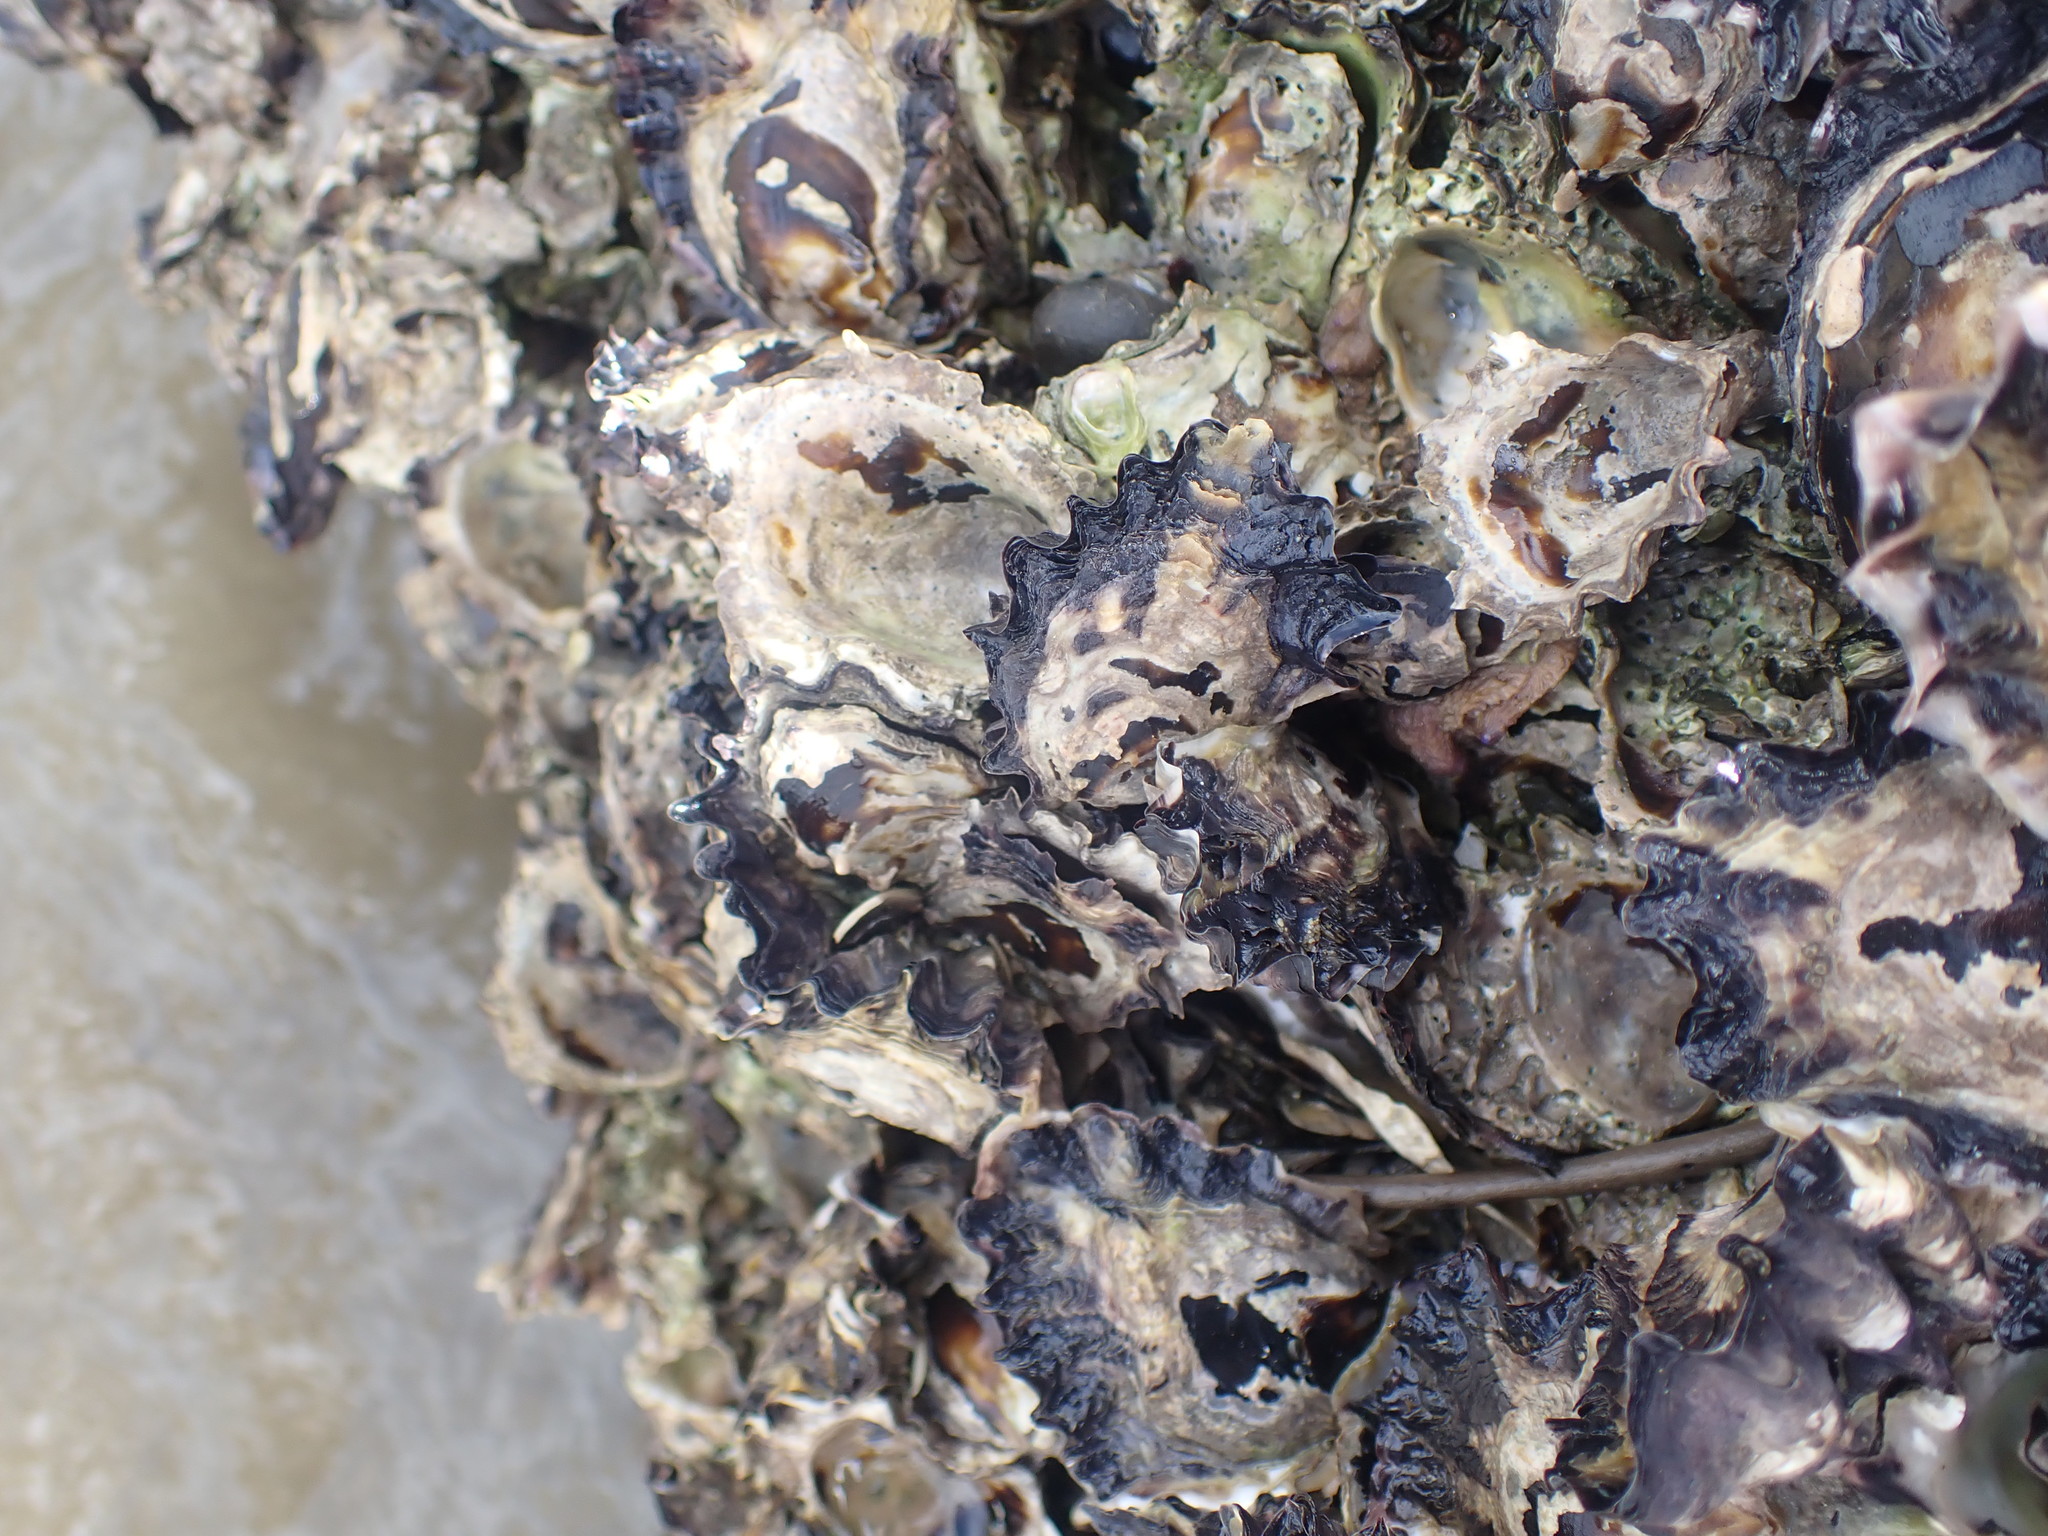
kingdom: Animalia
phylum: Mollusca
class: Bivalvia
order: Ostreida
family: Ostreidae
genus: Saccostrea
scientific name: Saccostrea glomerata
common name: Sydney cupped oyster
